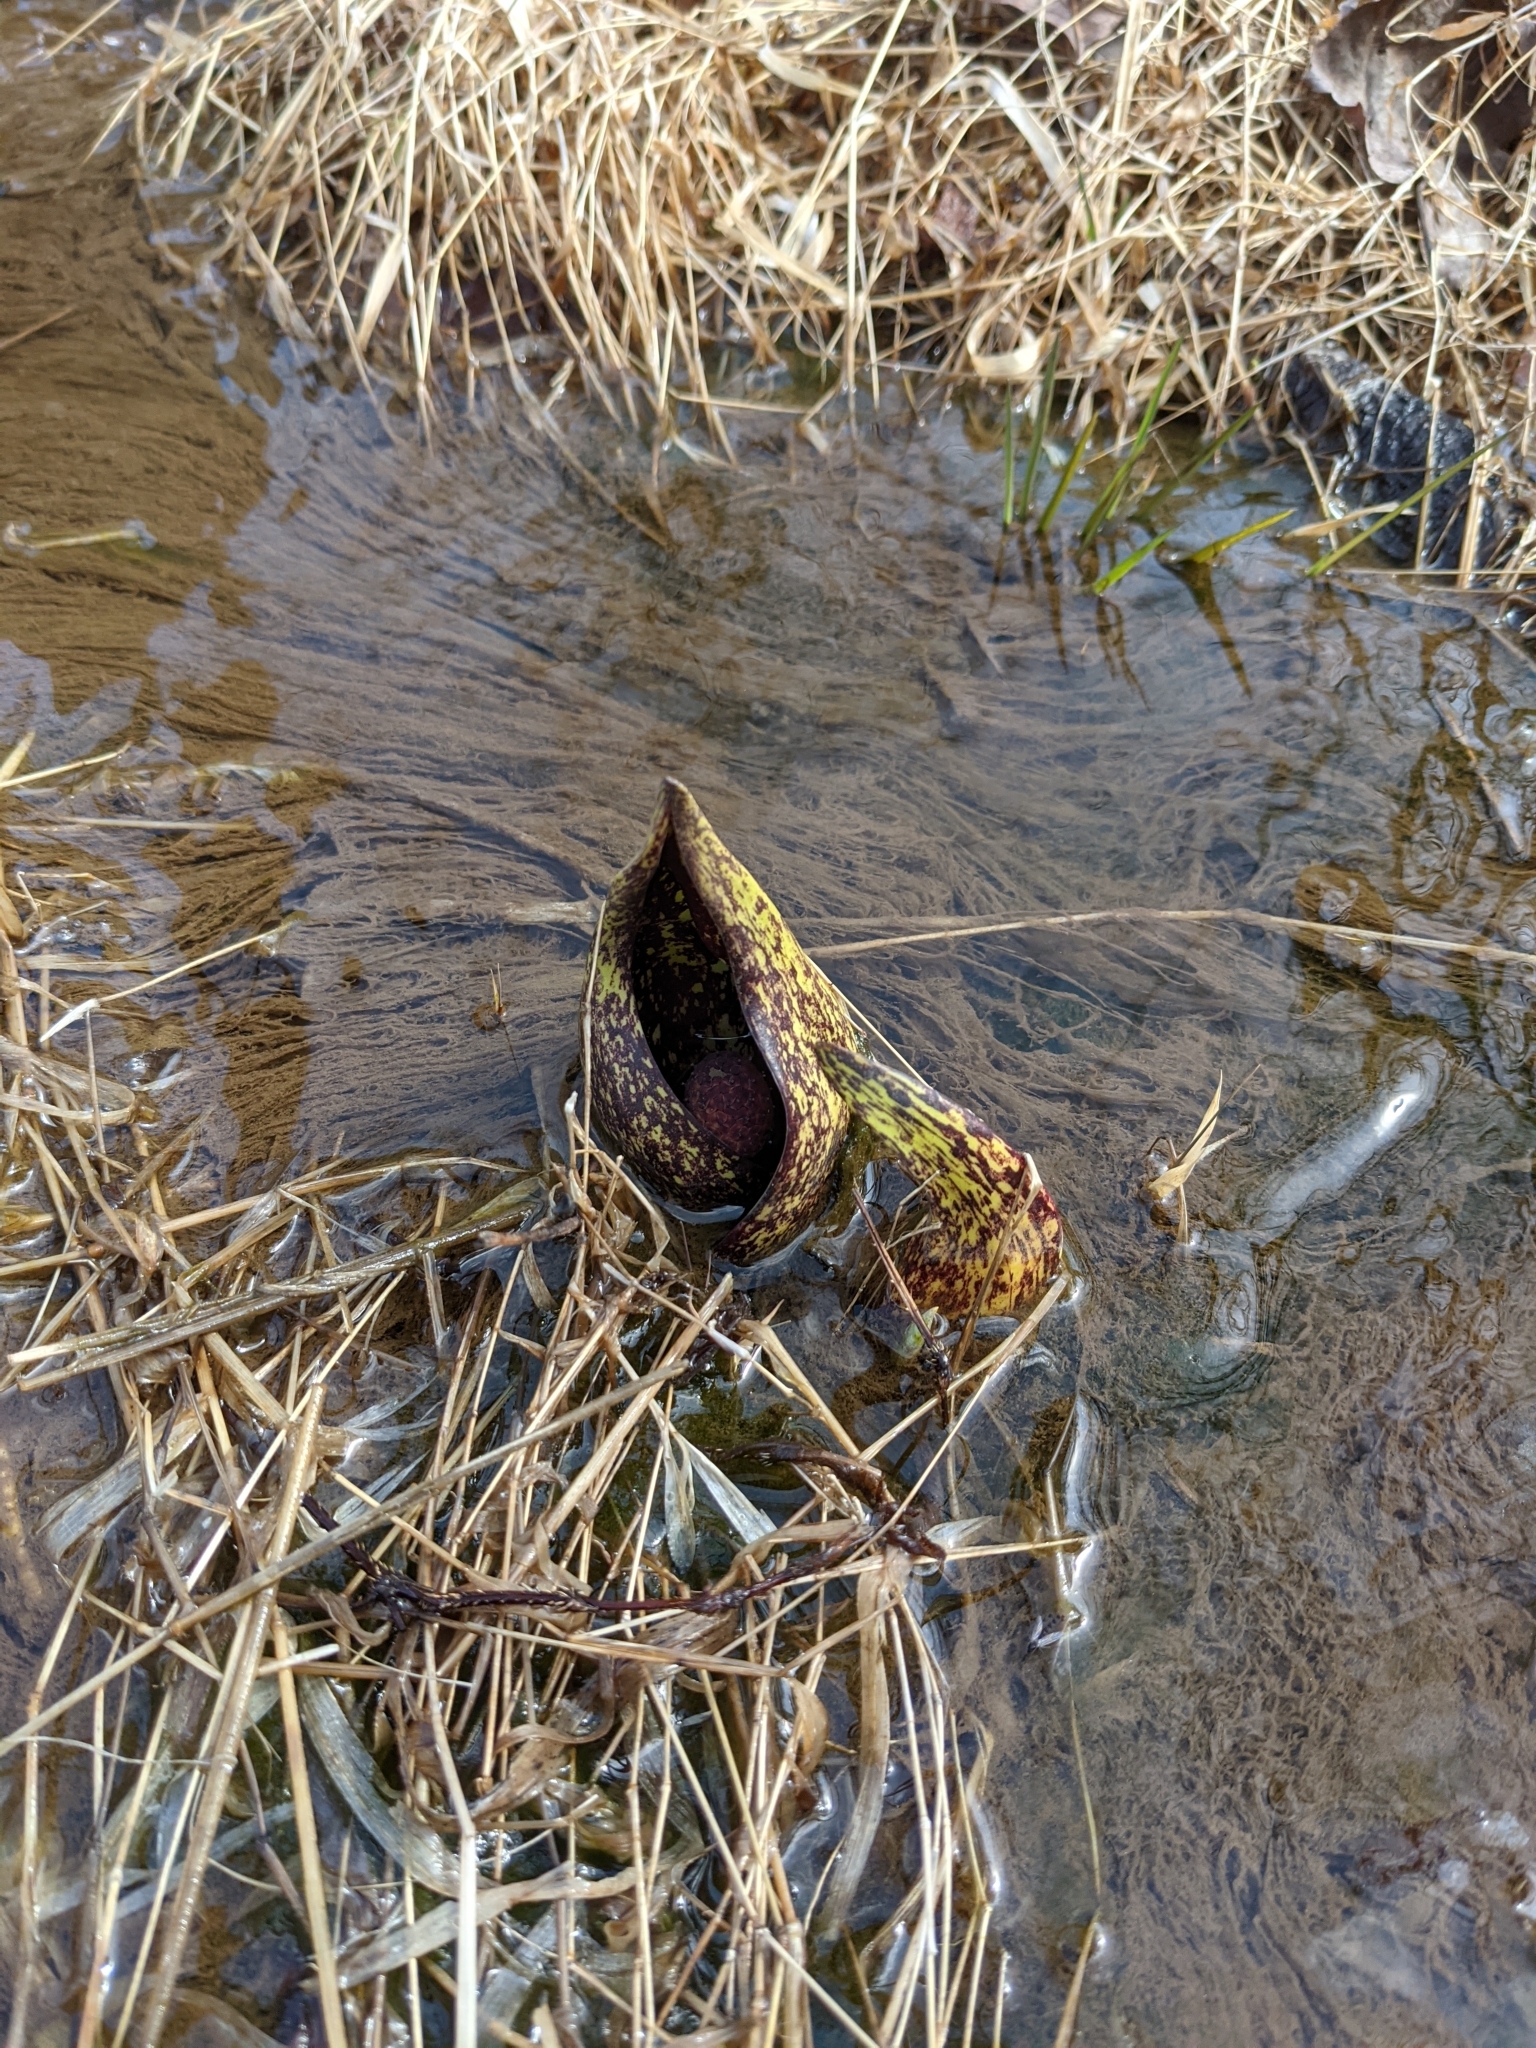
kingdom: Plantae
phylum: Tracheophyta
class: Liliopsida
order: Alismatales
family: Araceae
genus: Symplocarpus
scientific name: Symplocarpus foetidus
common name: Eastern skunk cabbage
